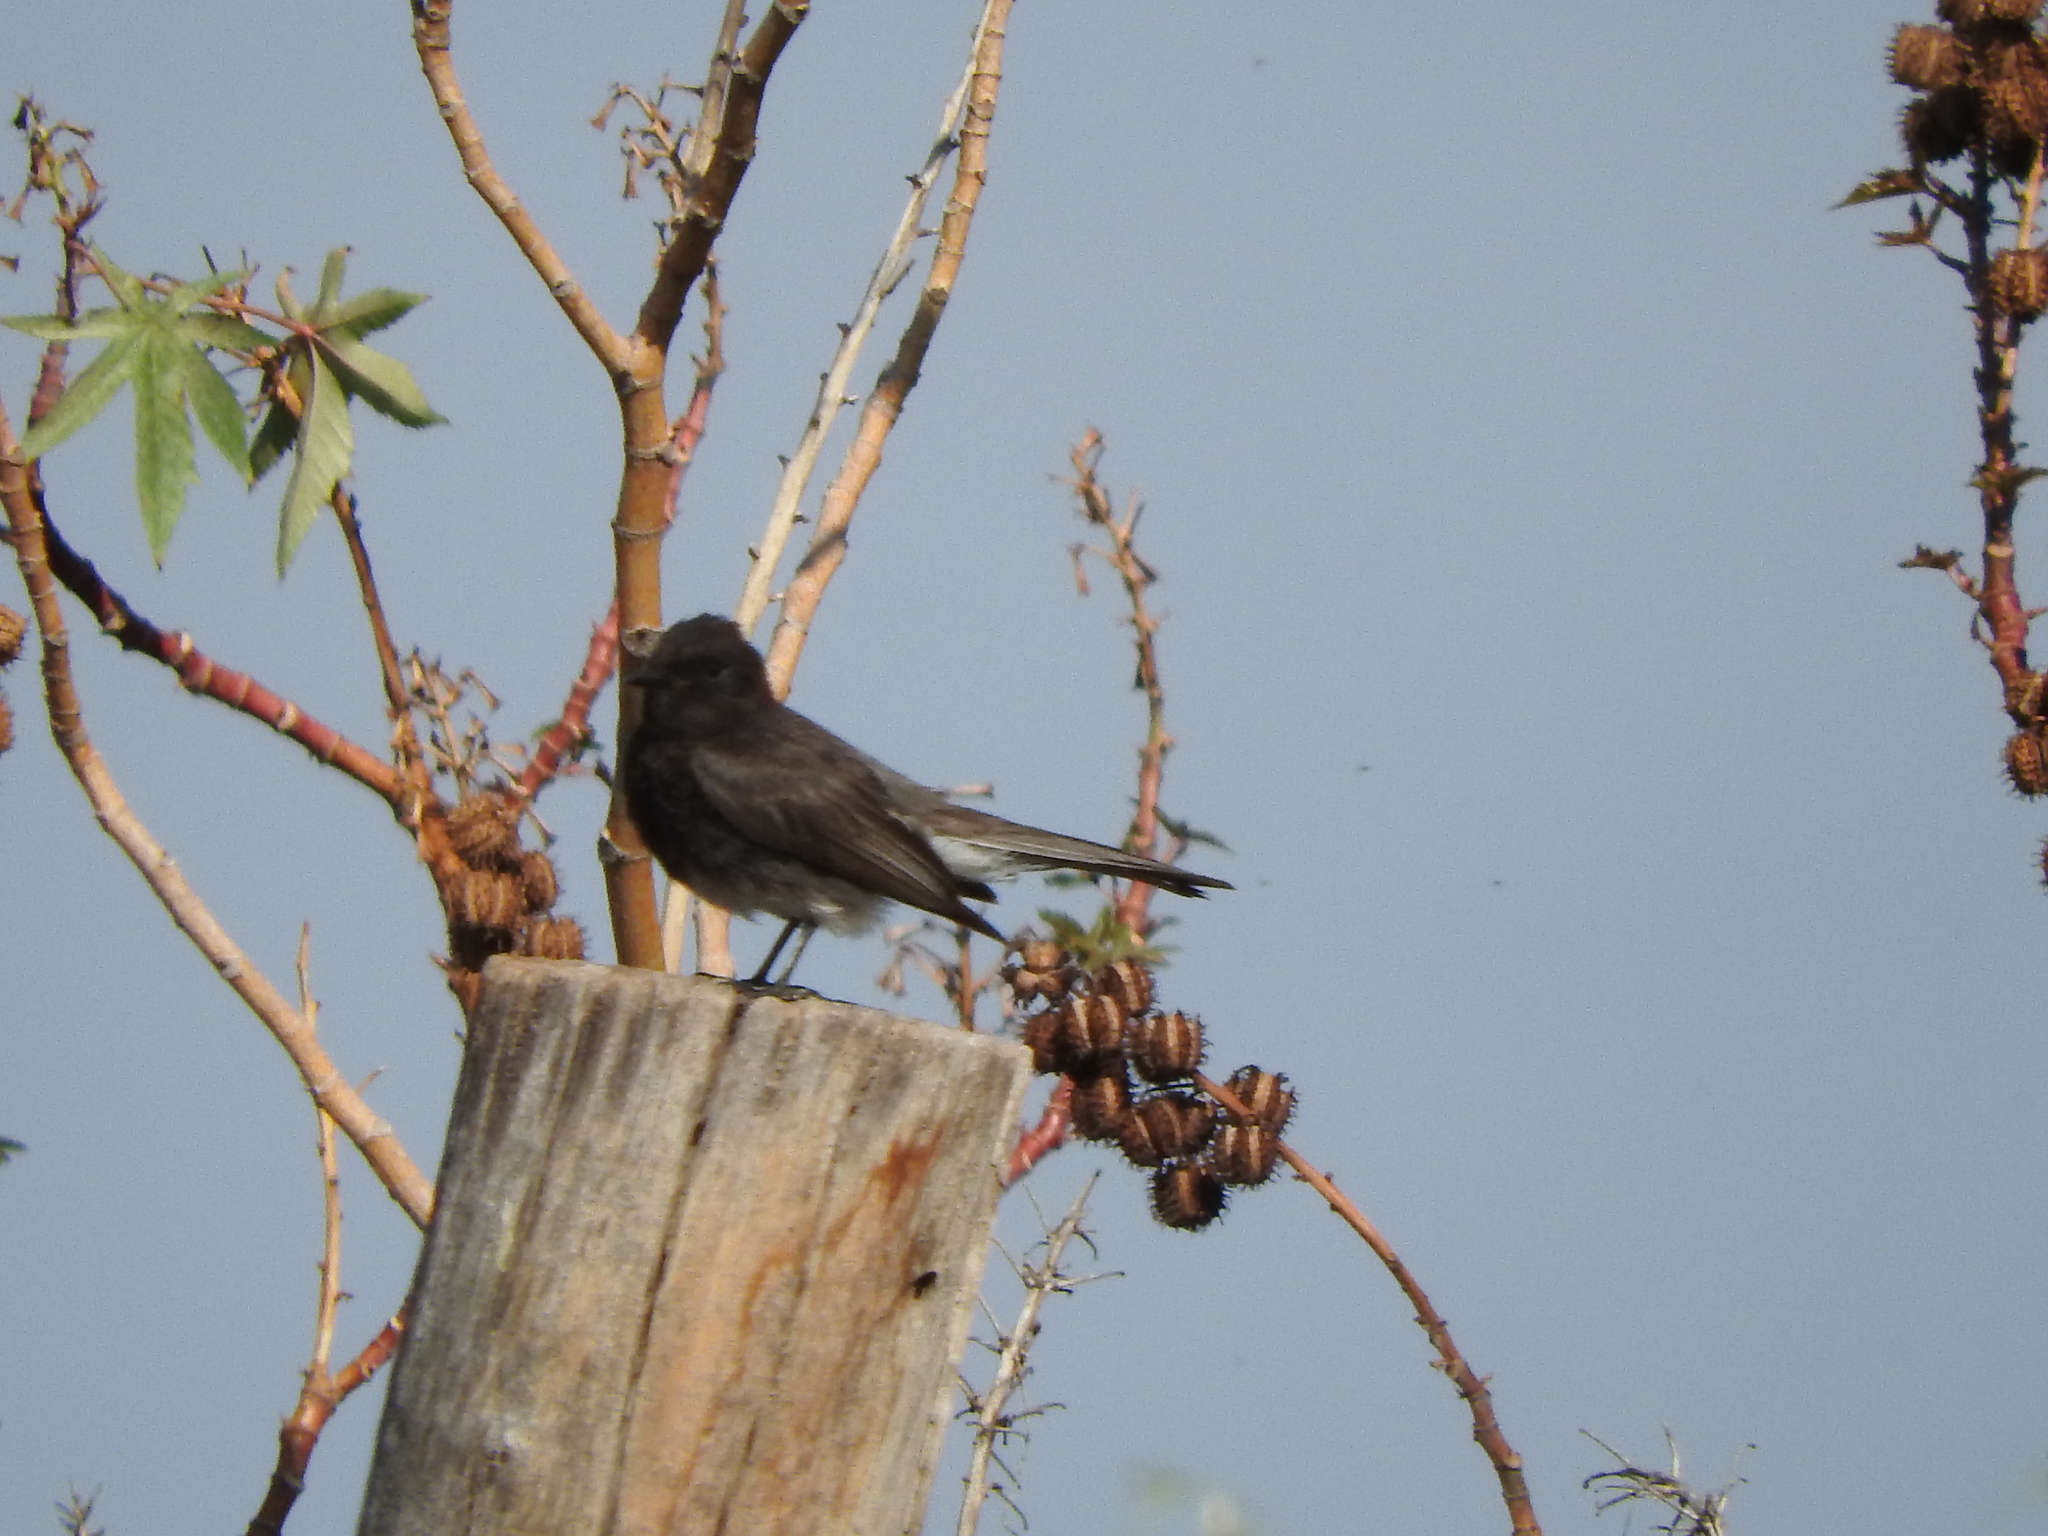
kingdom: Animalia
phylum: Chordata
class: Aves
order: Passeriformes
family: Tyrannidae
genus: Sayornis
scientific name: Sayornis nigricans
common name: Black phoebe
